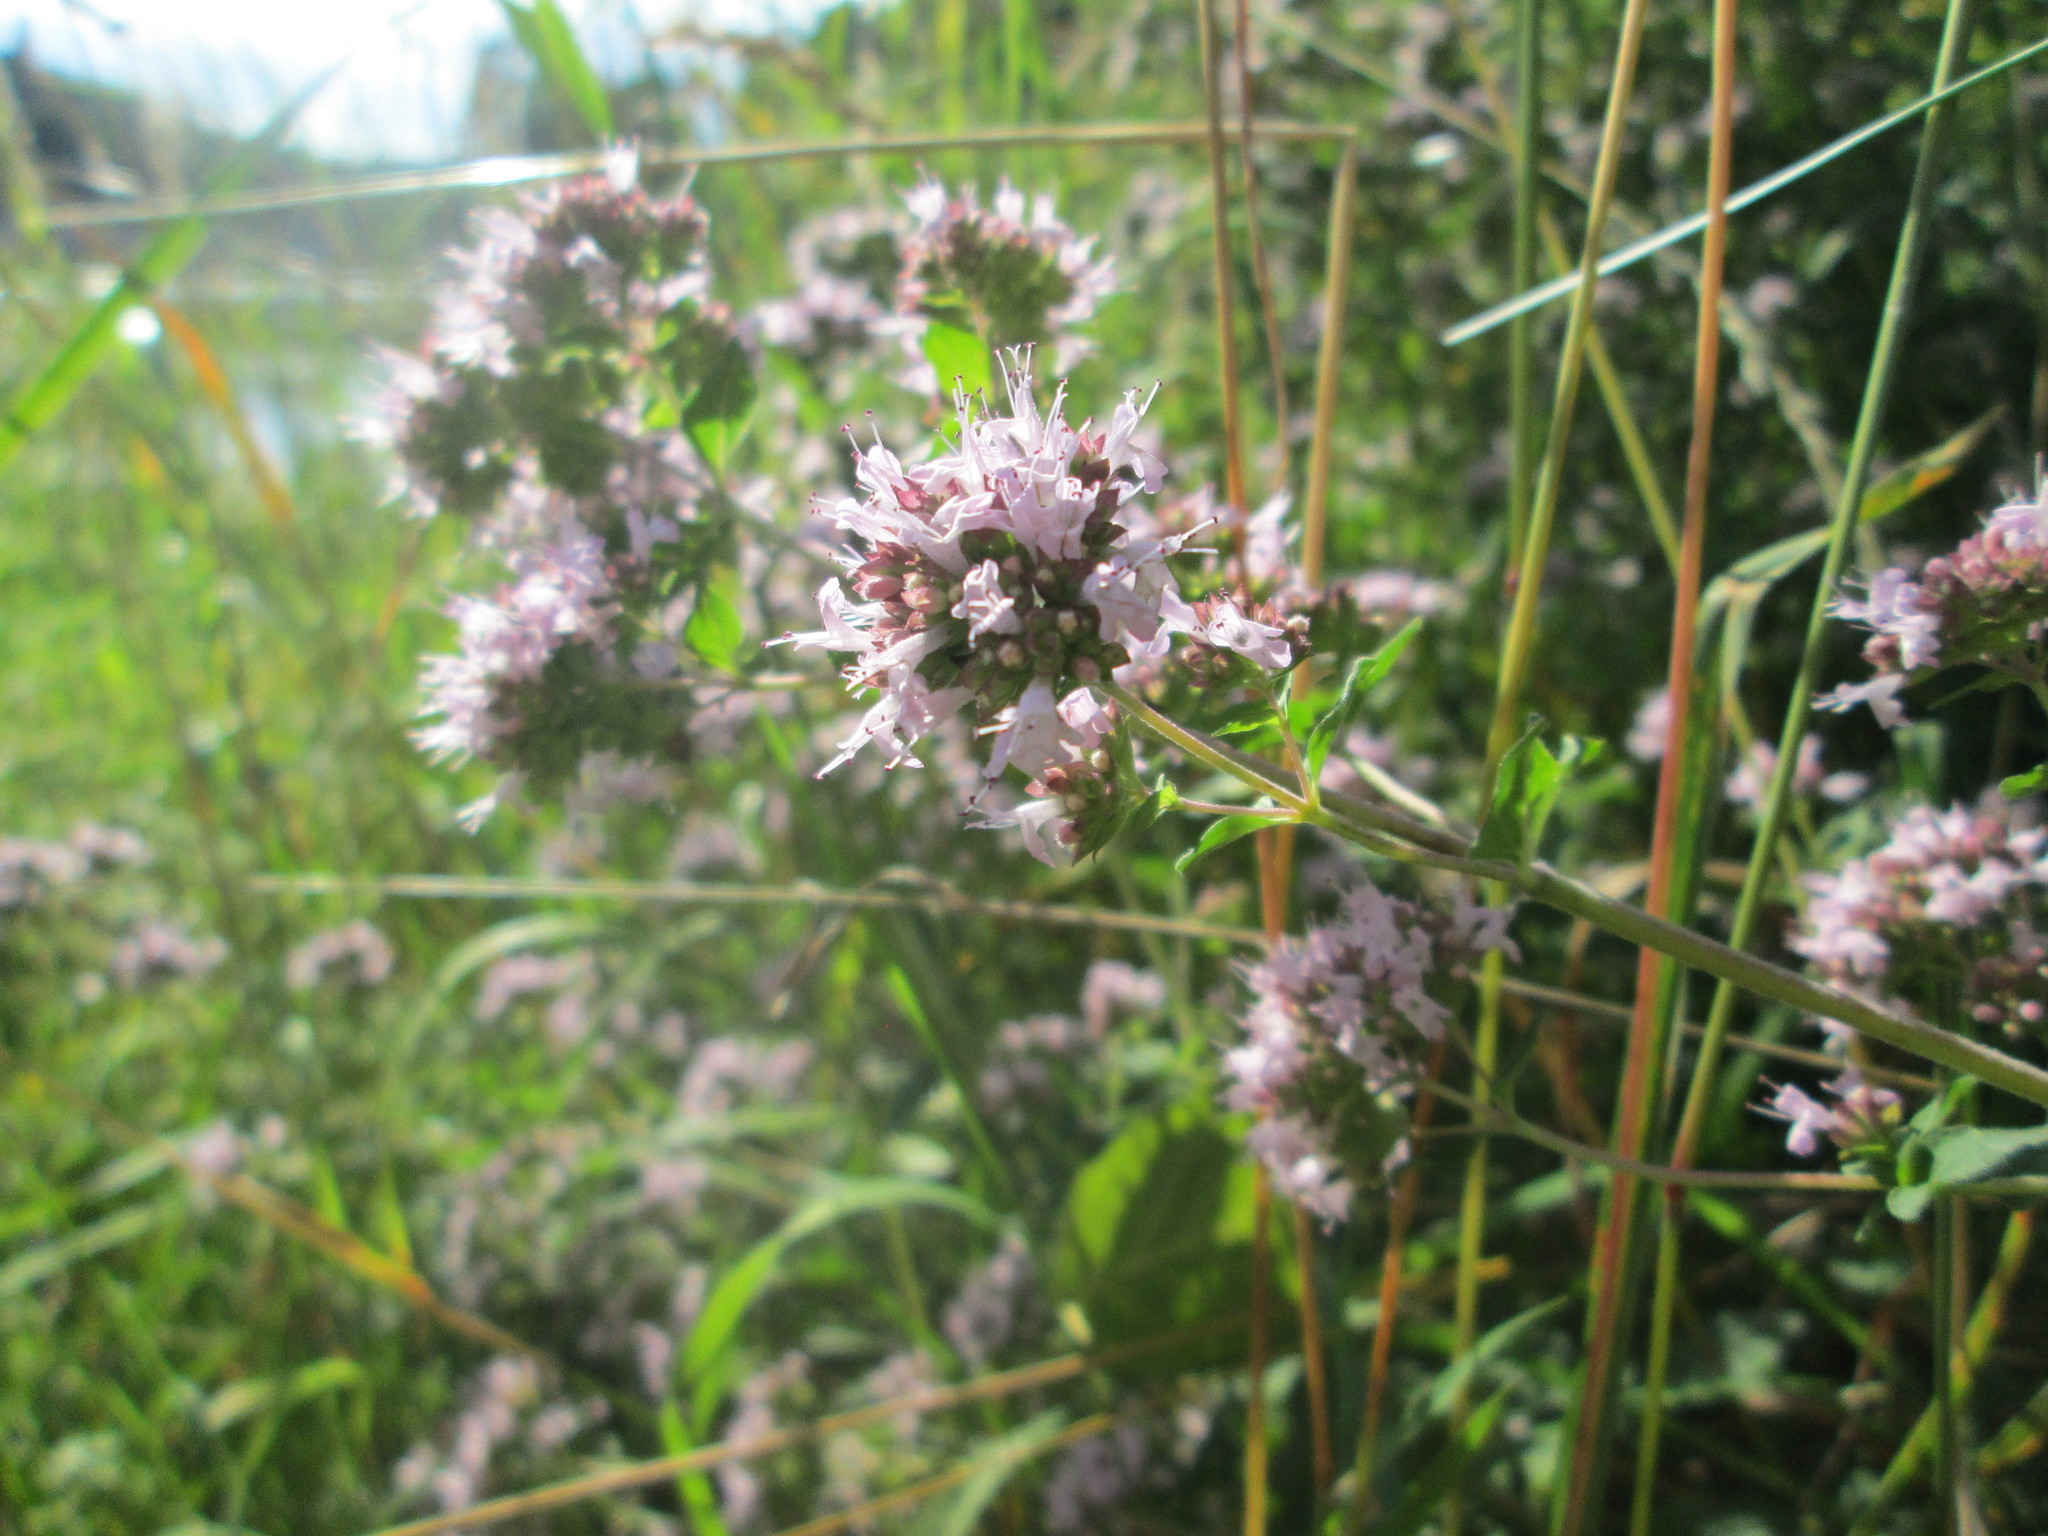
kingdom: Plantae
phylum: Tracheophyta
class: Magnoliopsida
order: Lamiales
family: Lamiaceae
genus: Origanum
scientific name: Origanum vulgare
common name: Wild marjoram
